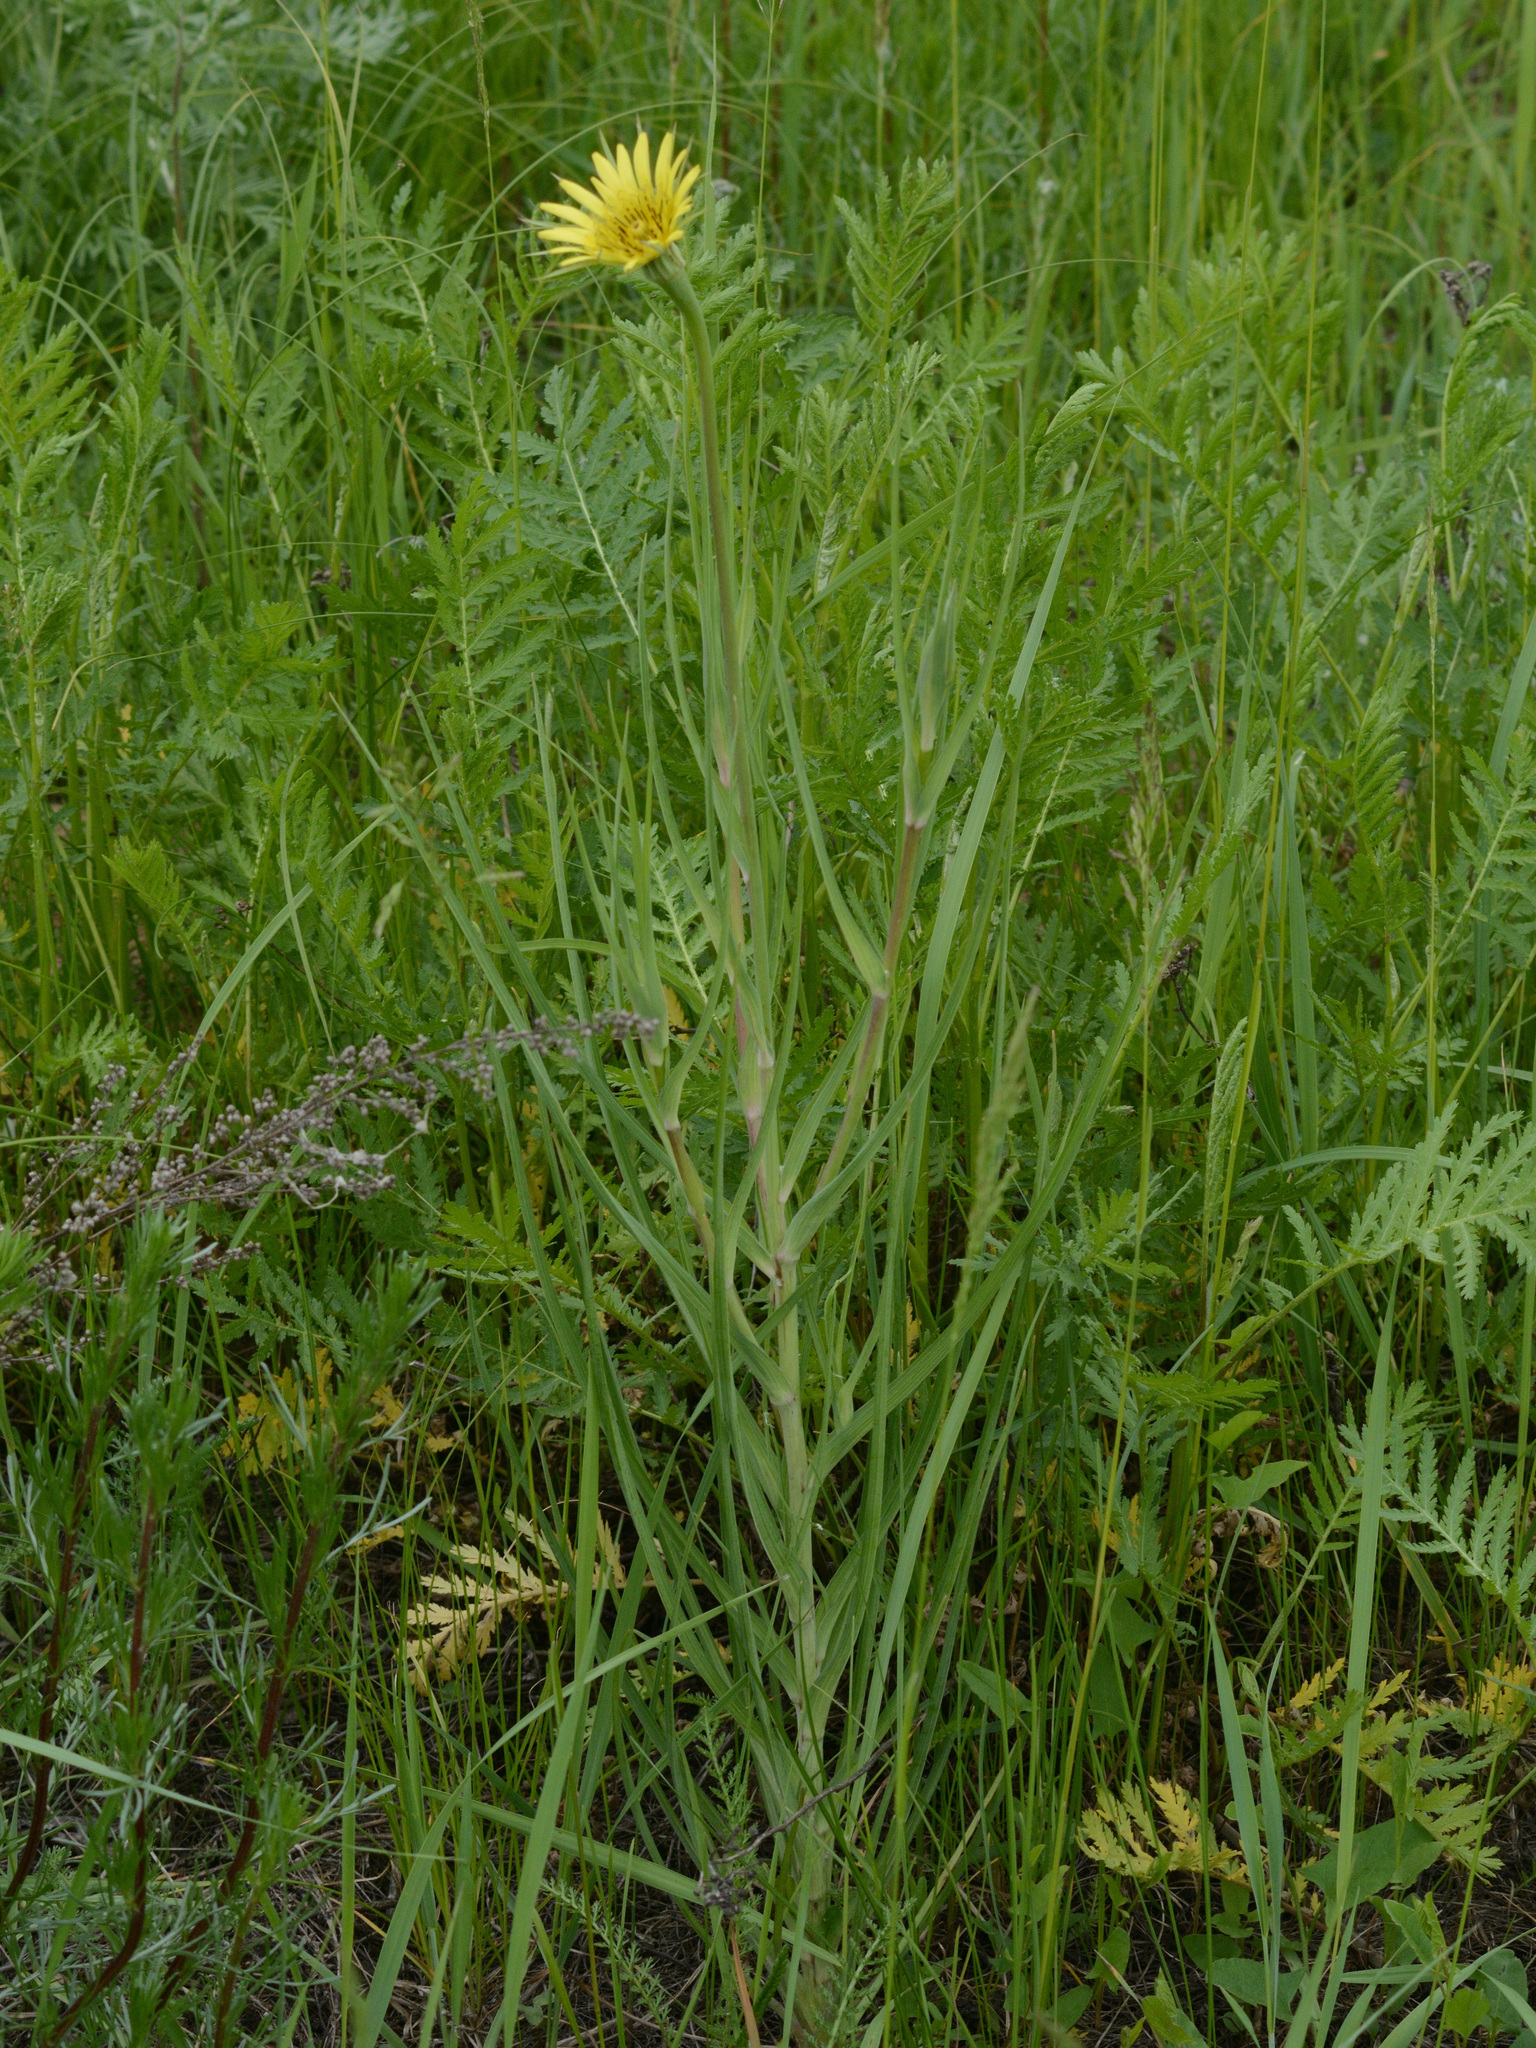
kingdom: Plantae
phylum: Tracheophyta
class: Magnoliopsida
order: Asterales
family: Asteraceae
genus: Tragopogon
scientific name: Tragopogon dubius
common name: Yellow salsify
